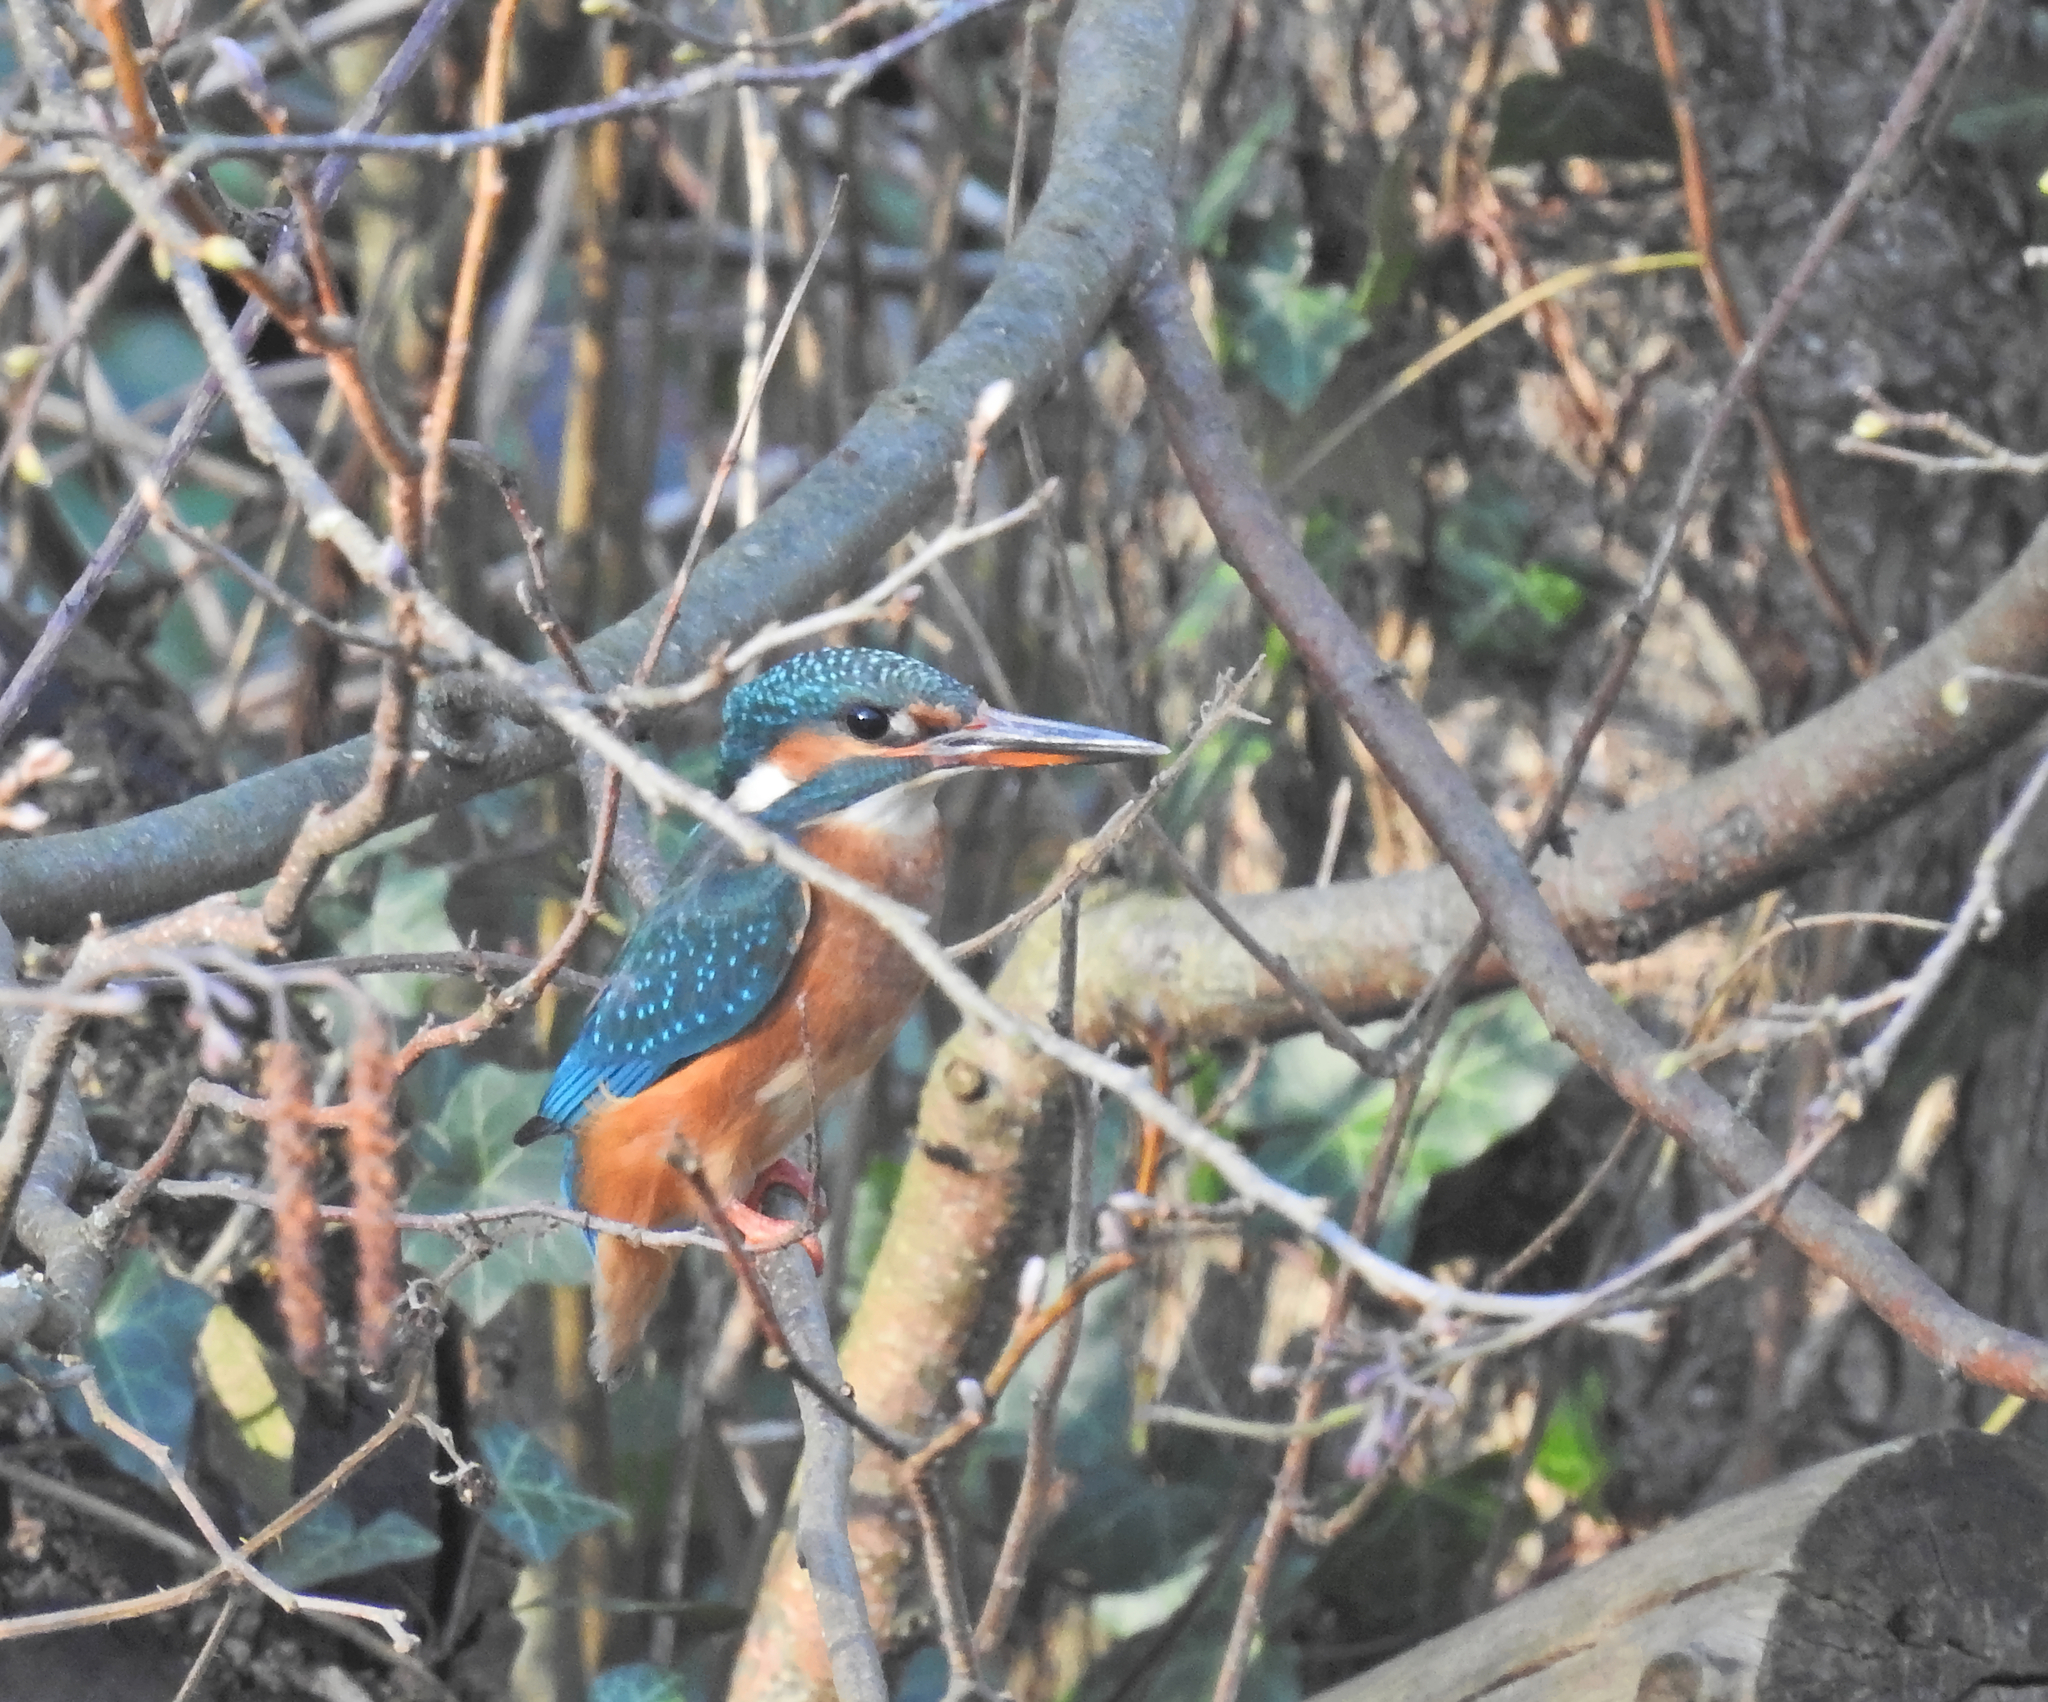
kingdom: Animalia
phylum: Chordata
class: Aves
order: Coraciiformes
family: Alcedinidae
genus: Alcedo
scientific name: Alcedo atthis
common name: Common kingfisher
